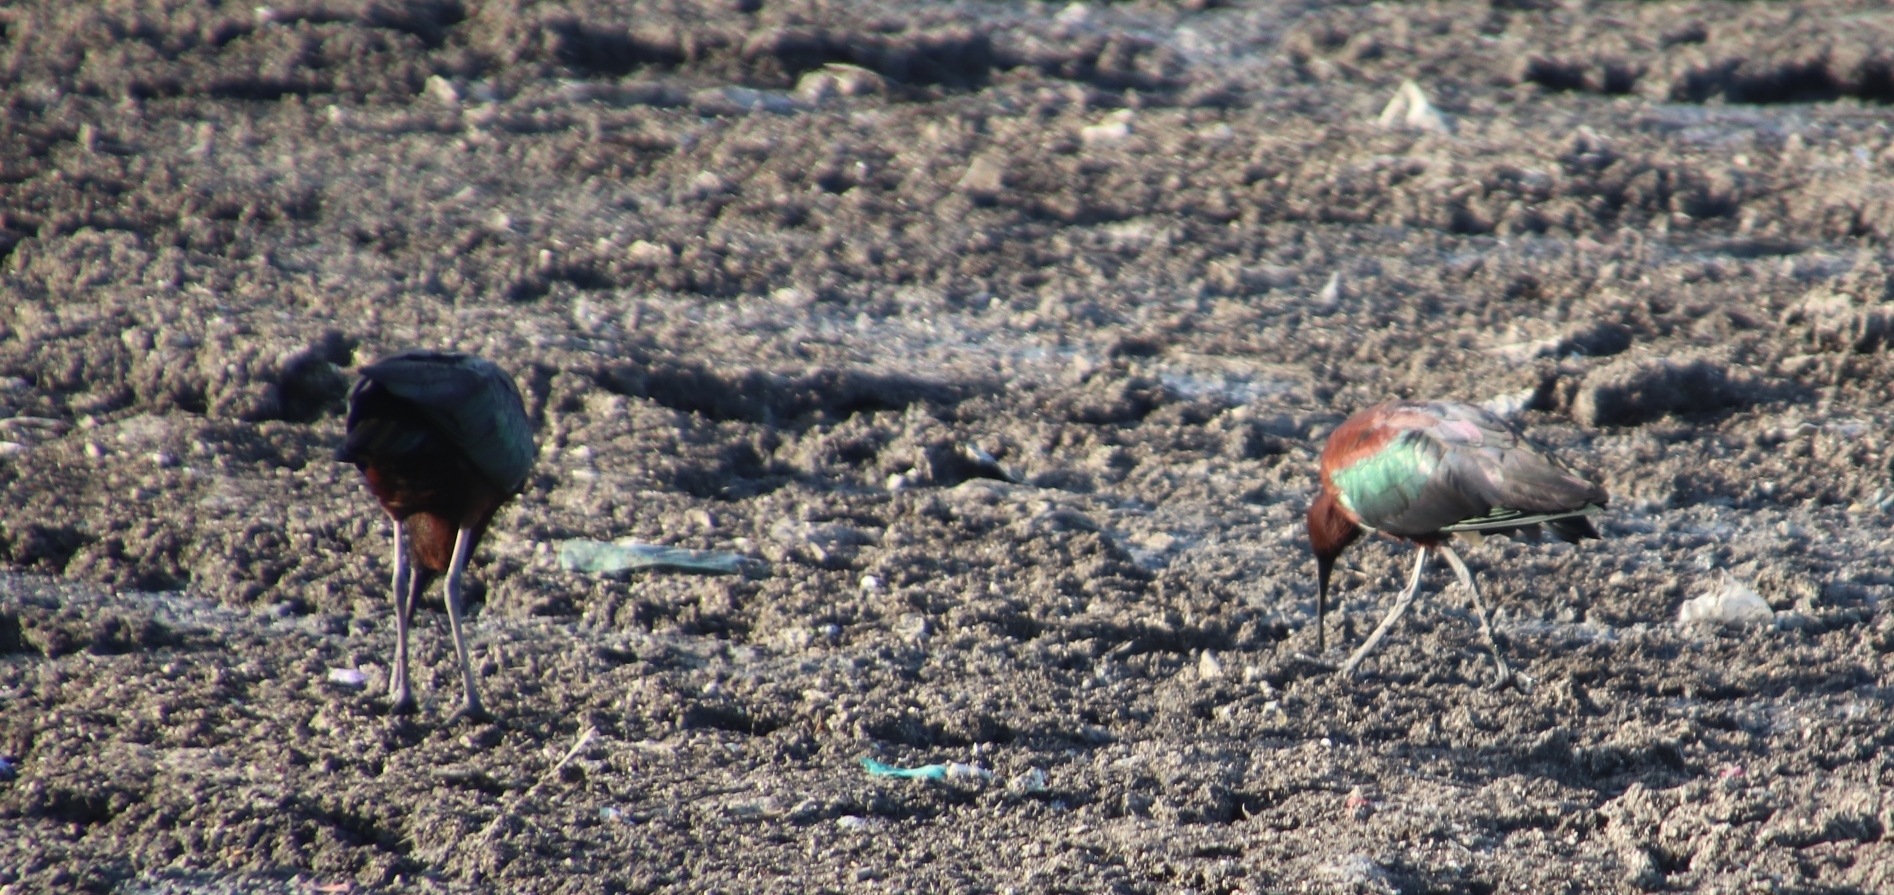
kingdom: Animalia
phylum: Chordata
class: Aves
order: Pelecaniformes
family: Threskiornithidae
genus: Plegadis
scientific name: Plegadis falcinellus
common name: Glossy ibis
